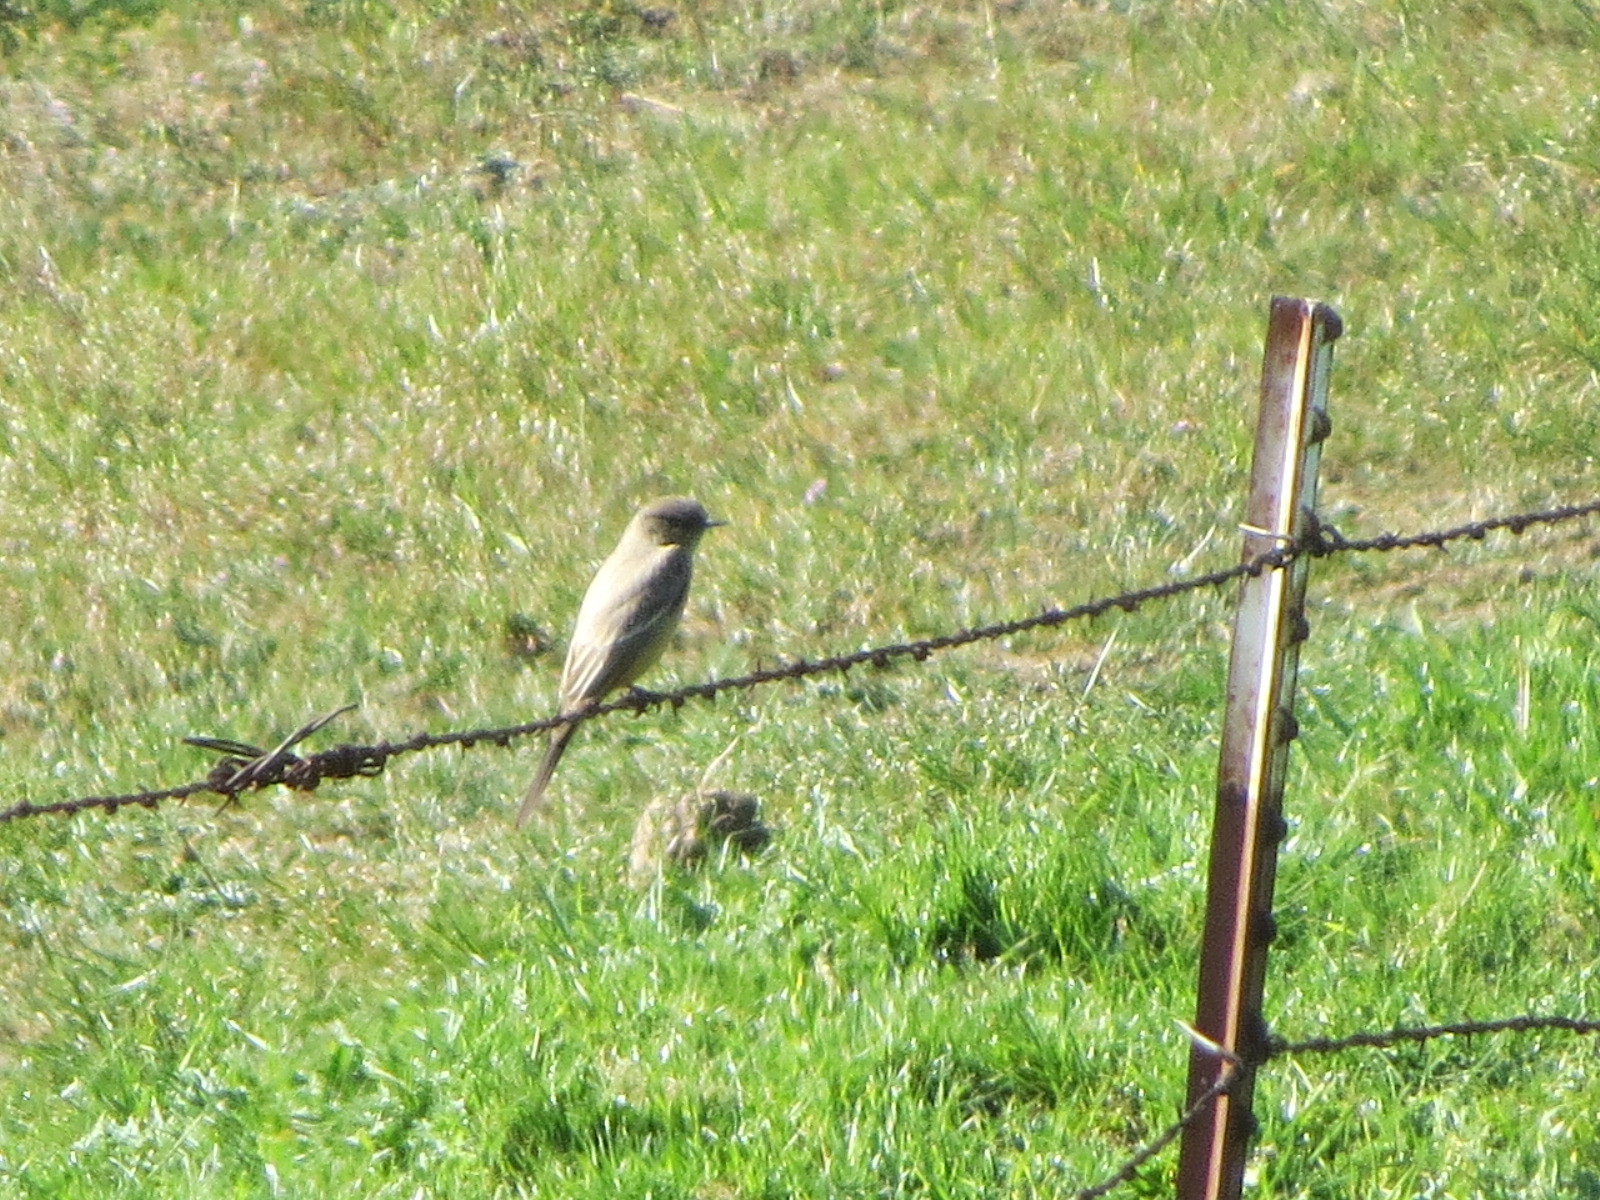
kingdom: Animalia
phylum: Chordata
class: Aves
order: Passeriformes
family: Tyrannidae
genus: Sayornis
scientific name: Sayornis saya
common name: Say's phoebe
